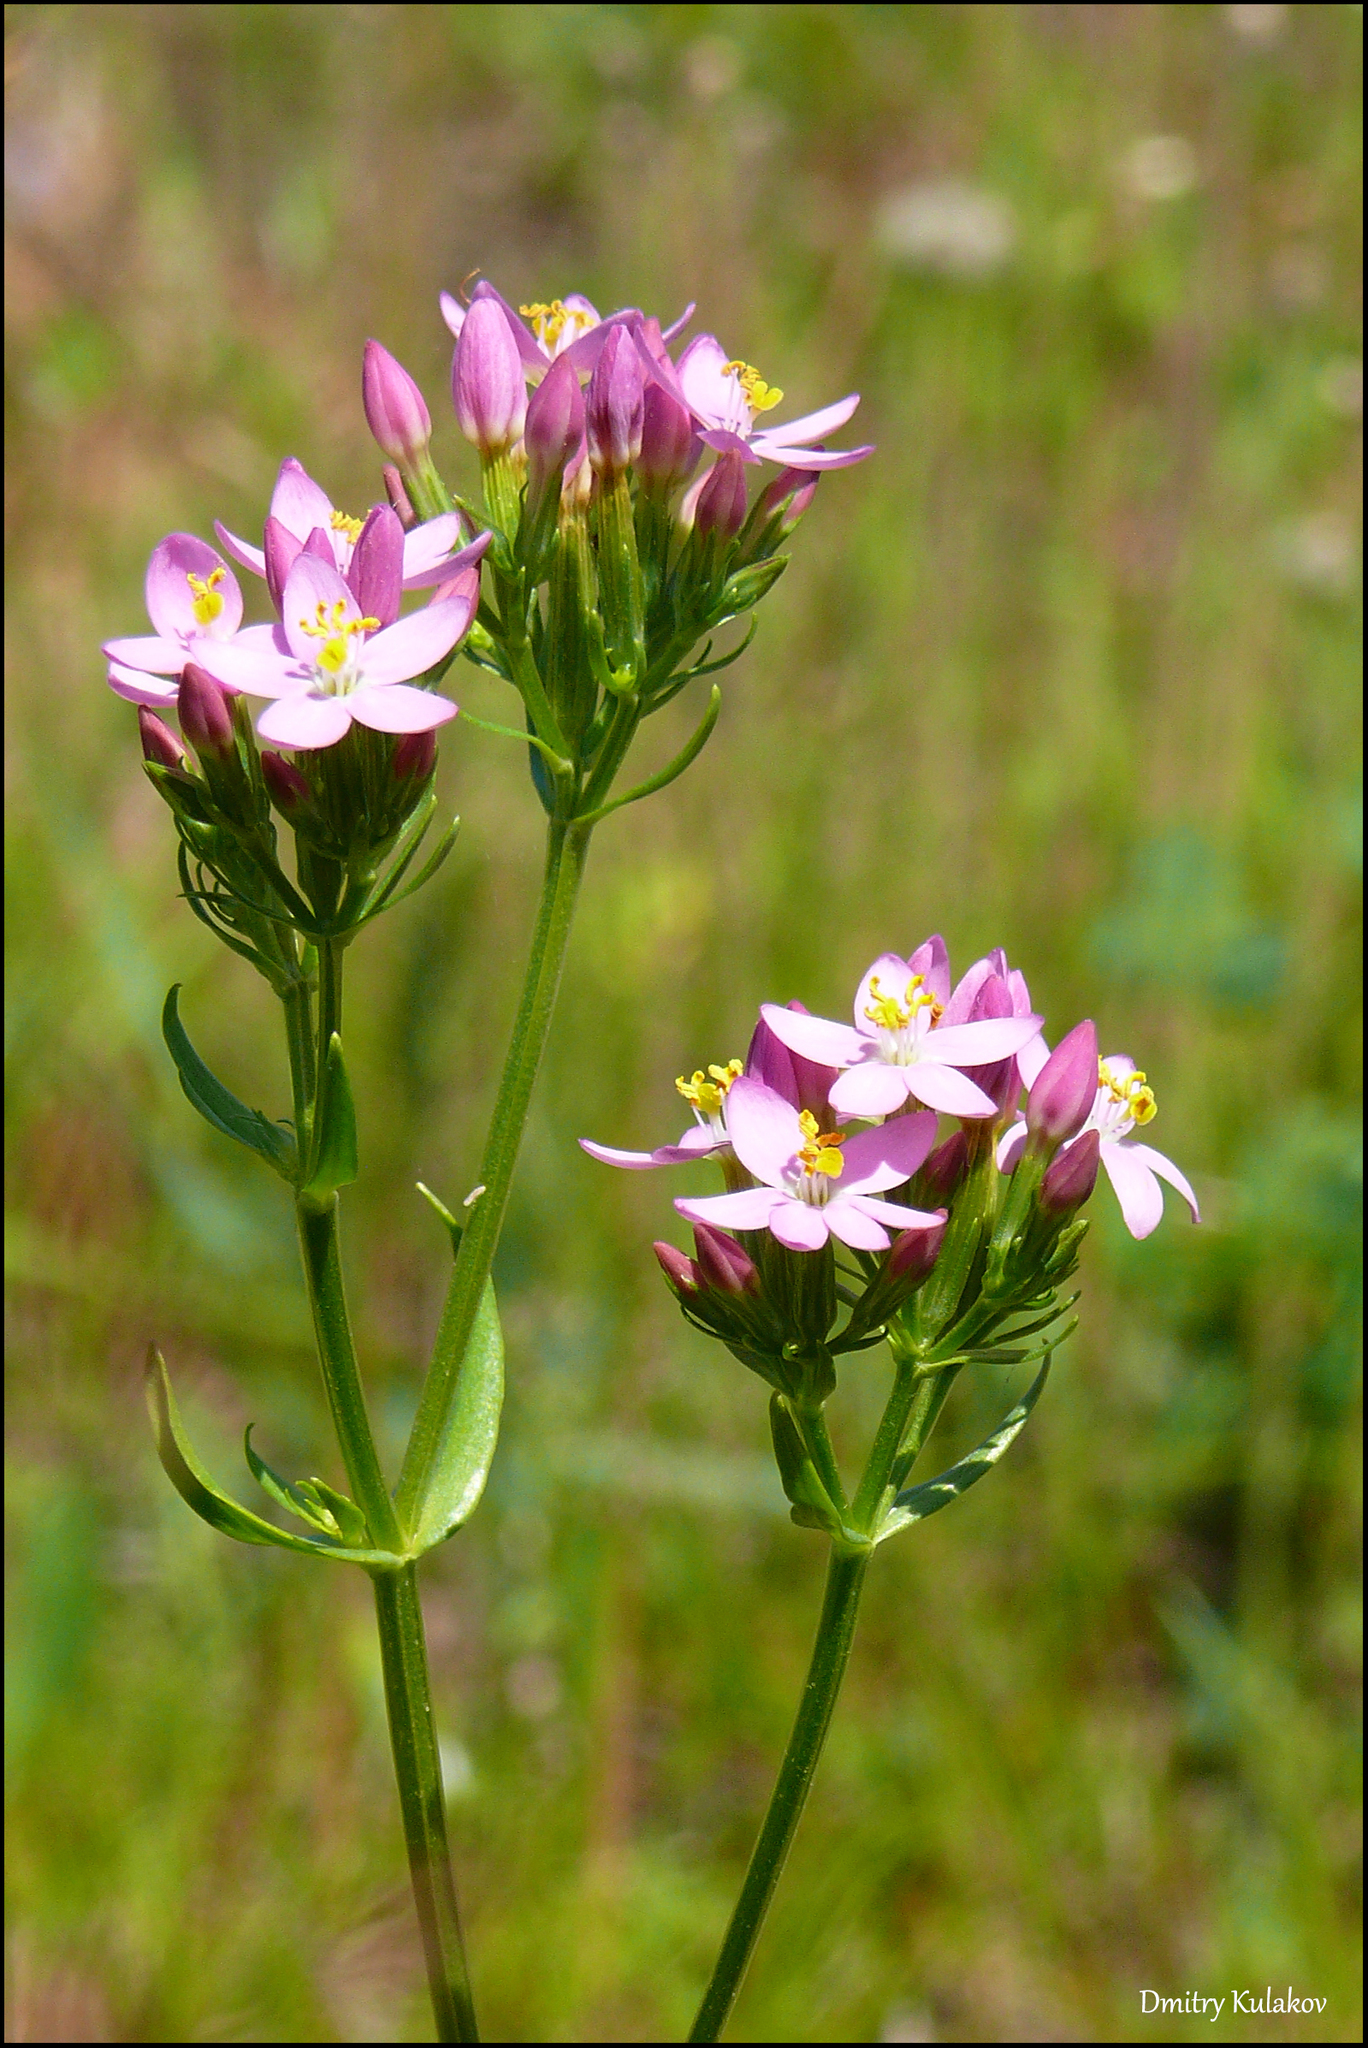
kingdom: Plantae
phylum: Tracheophyta
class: Magnoliopsida
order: Gentianales
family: Gentianaceae
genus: Centaurium
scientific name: Centaurium erythraea
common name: Common centaury
